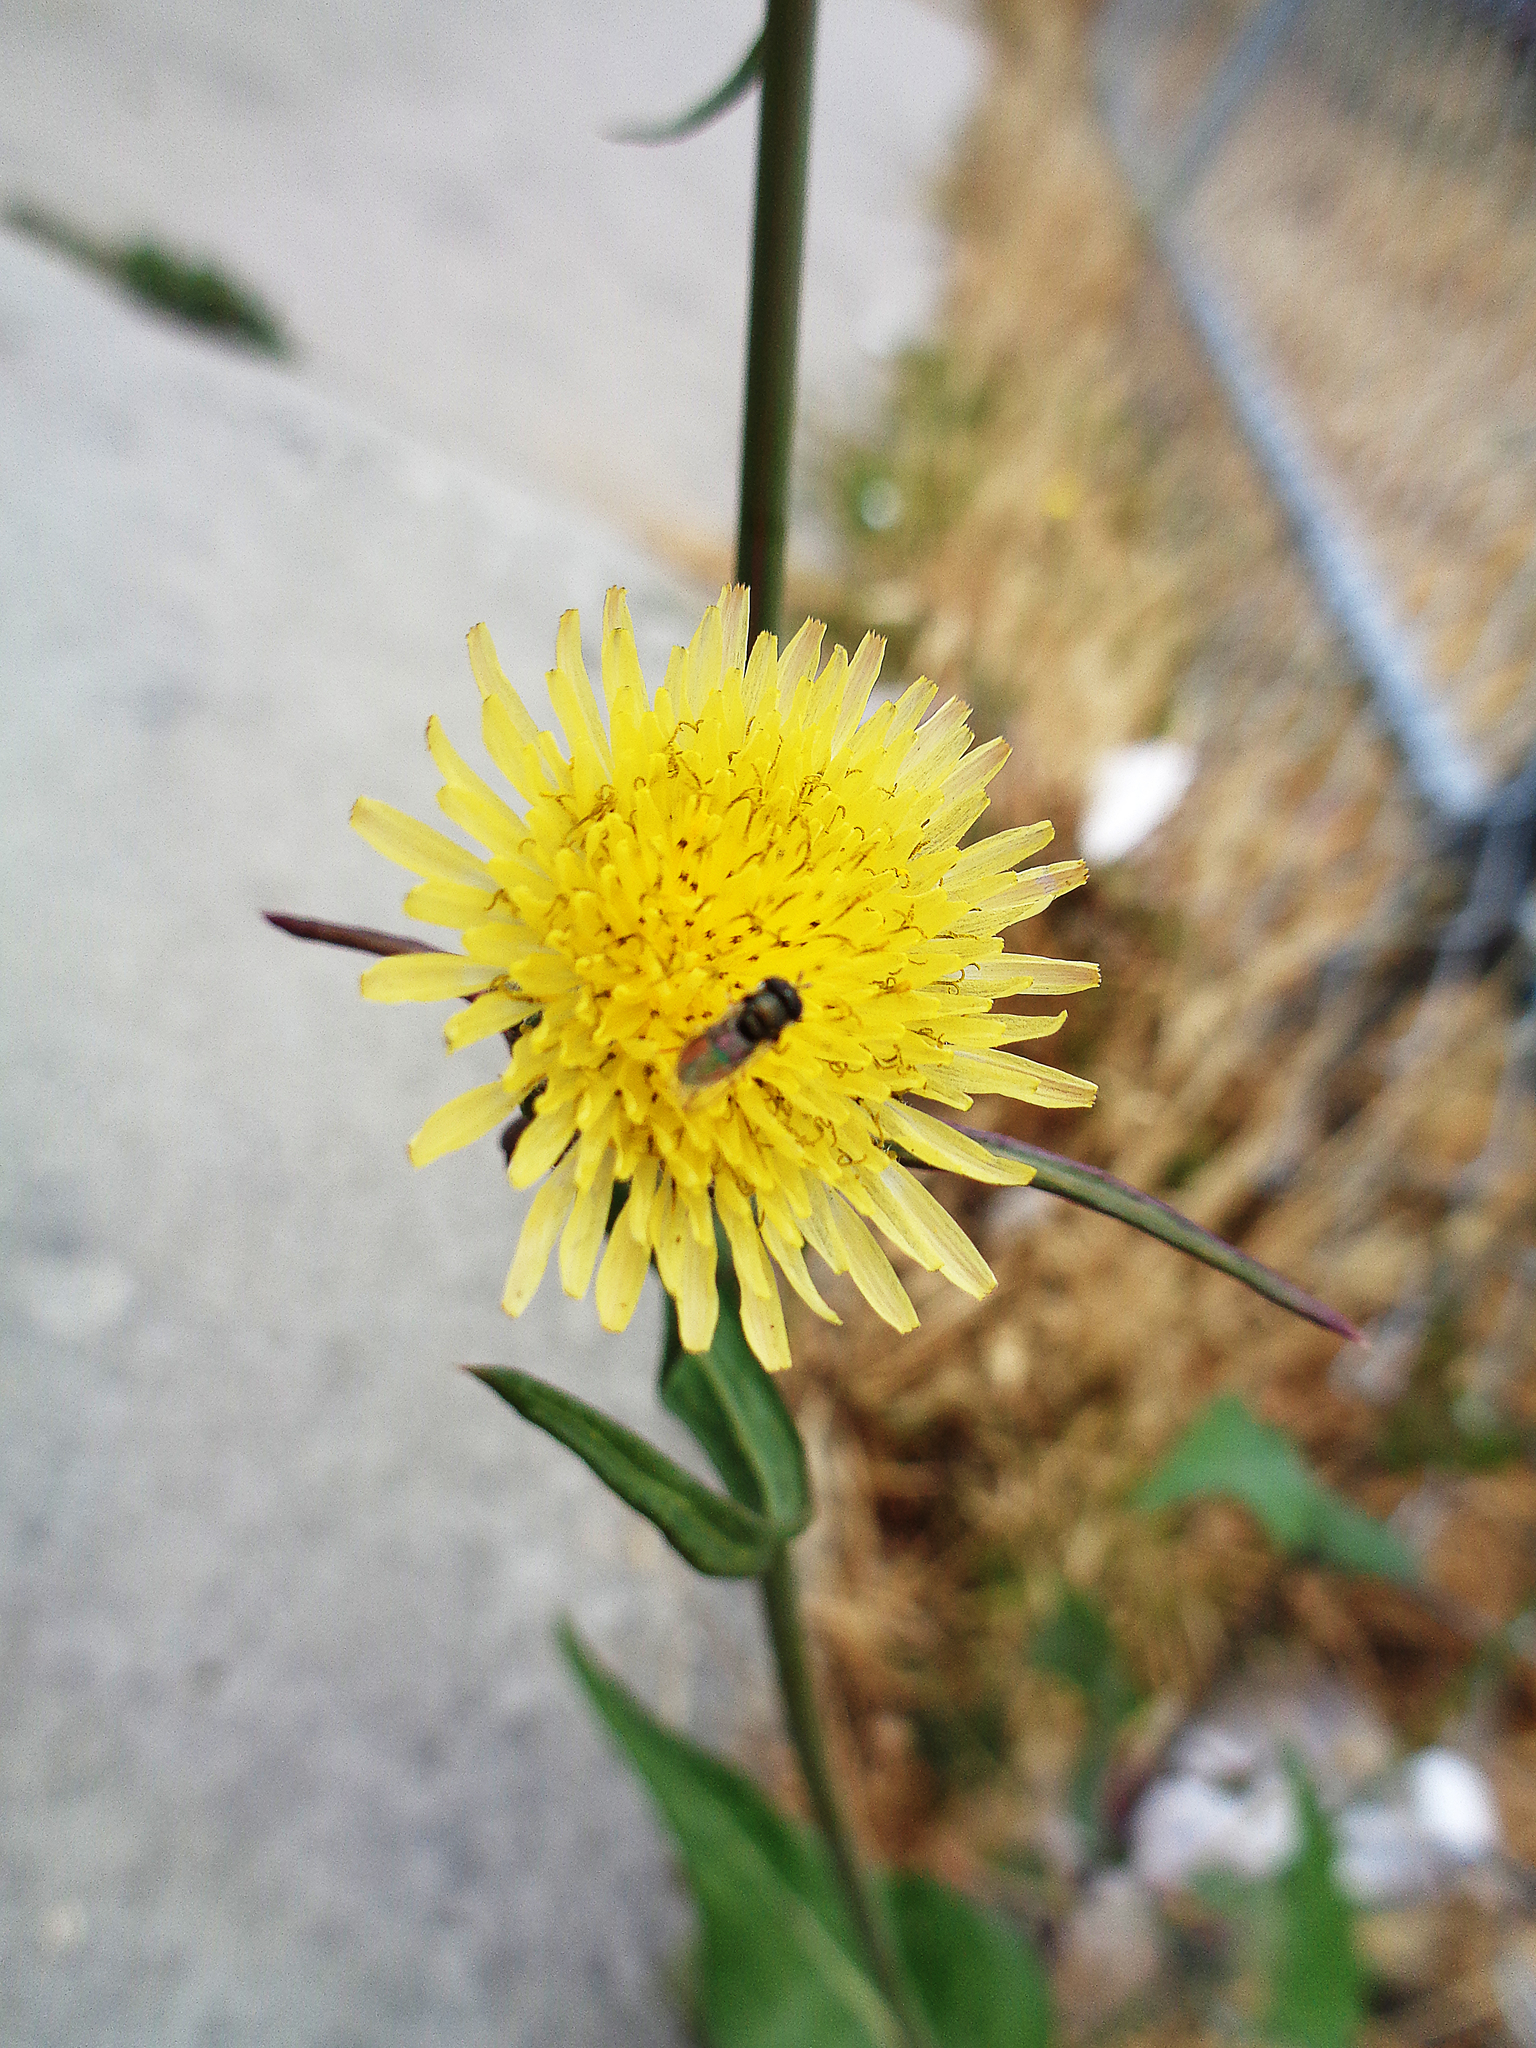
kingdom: Animalia
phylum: Arthropoda
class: Insecta
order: Diptera
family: Syrphidae
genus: Paragus
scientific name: Paragus
